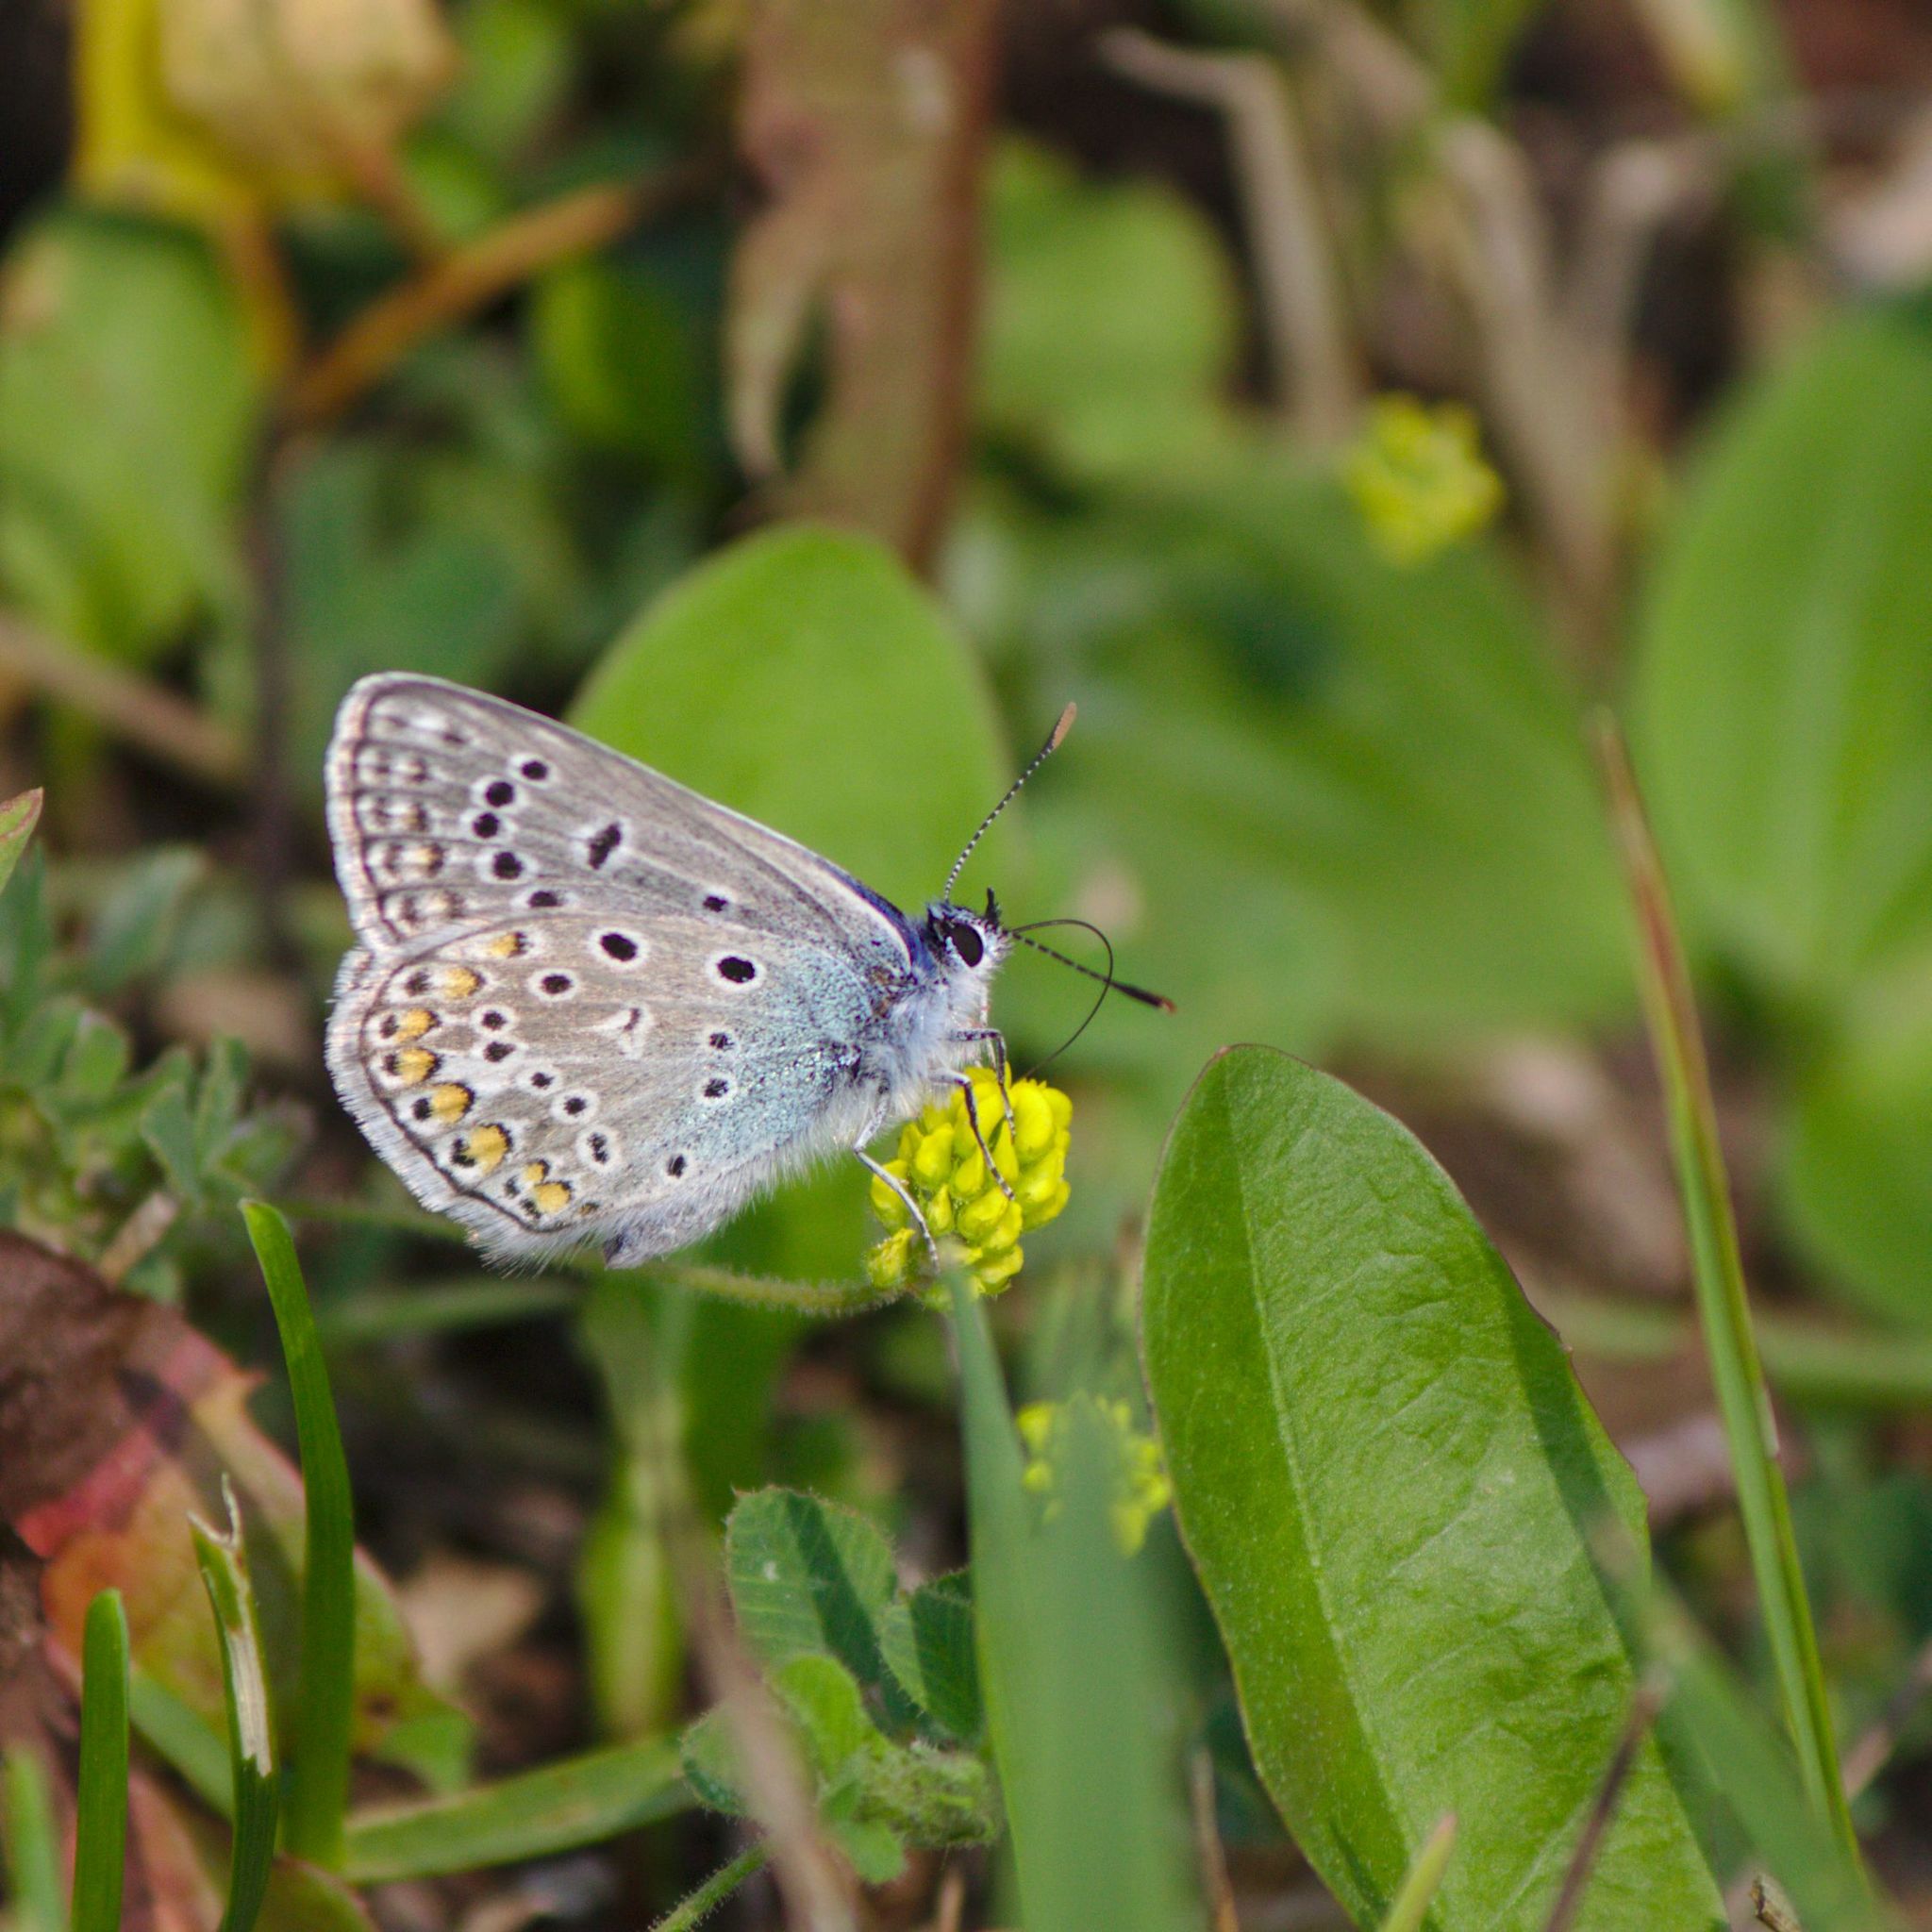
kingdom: Animalia
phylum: Arthropoda
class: Insecta
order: Lepidoptera
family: Lycaenidae
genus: Polyommatus
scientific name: Polyommatus icarus
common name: Common blue
